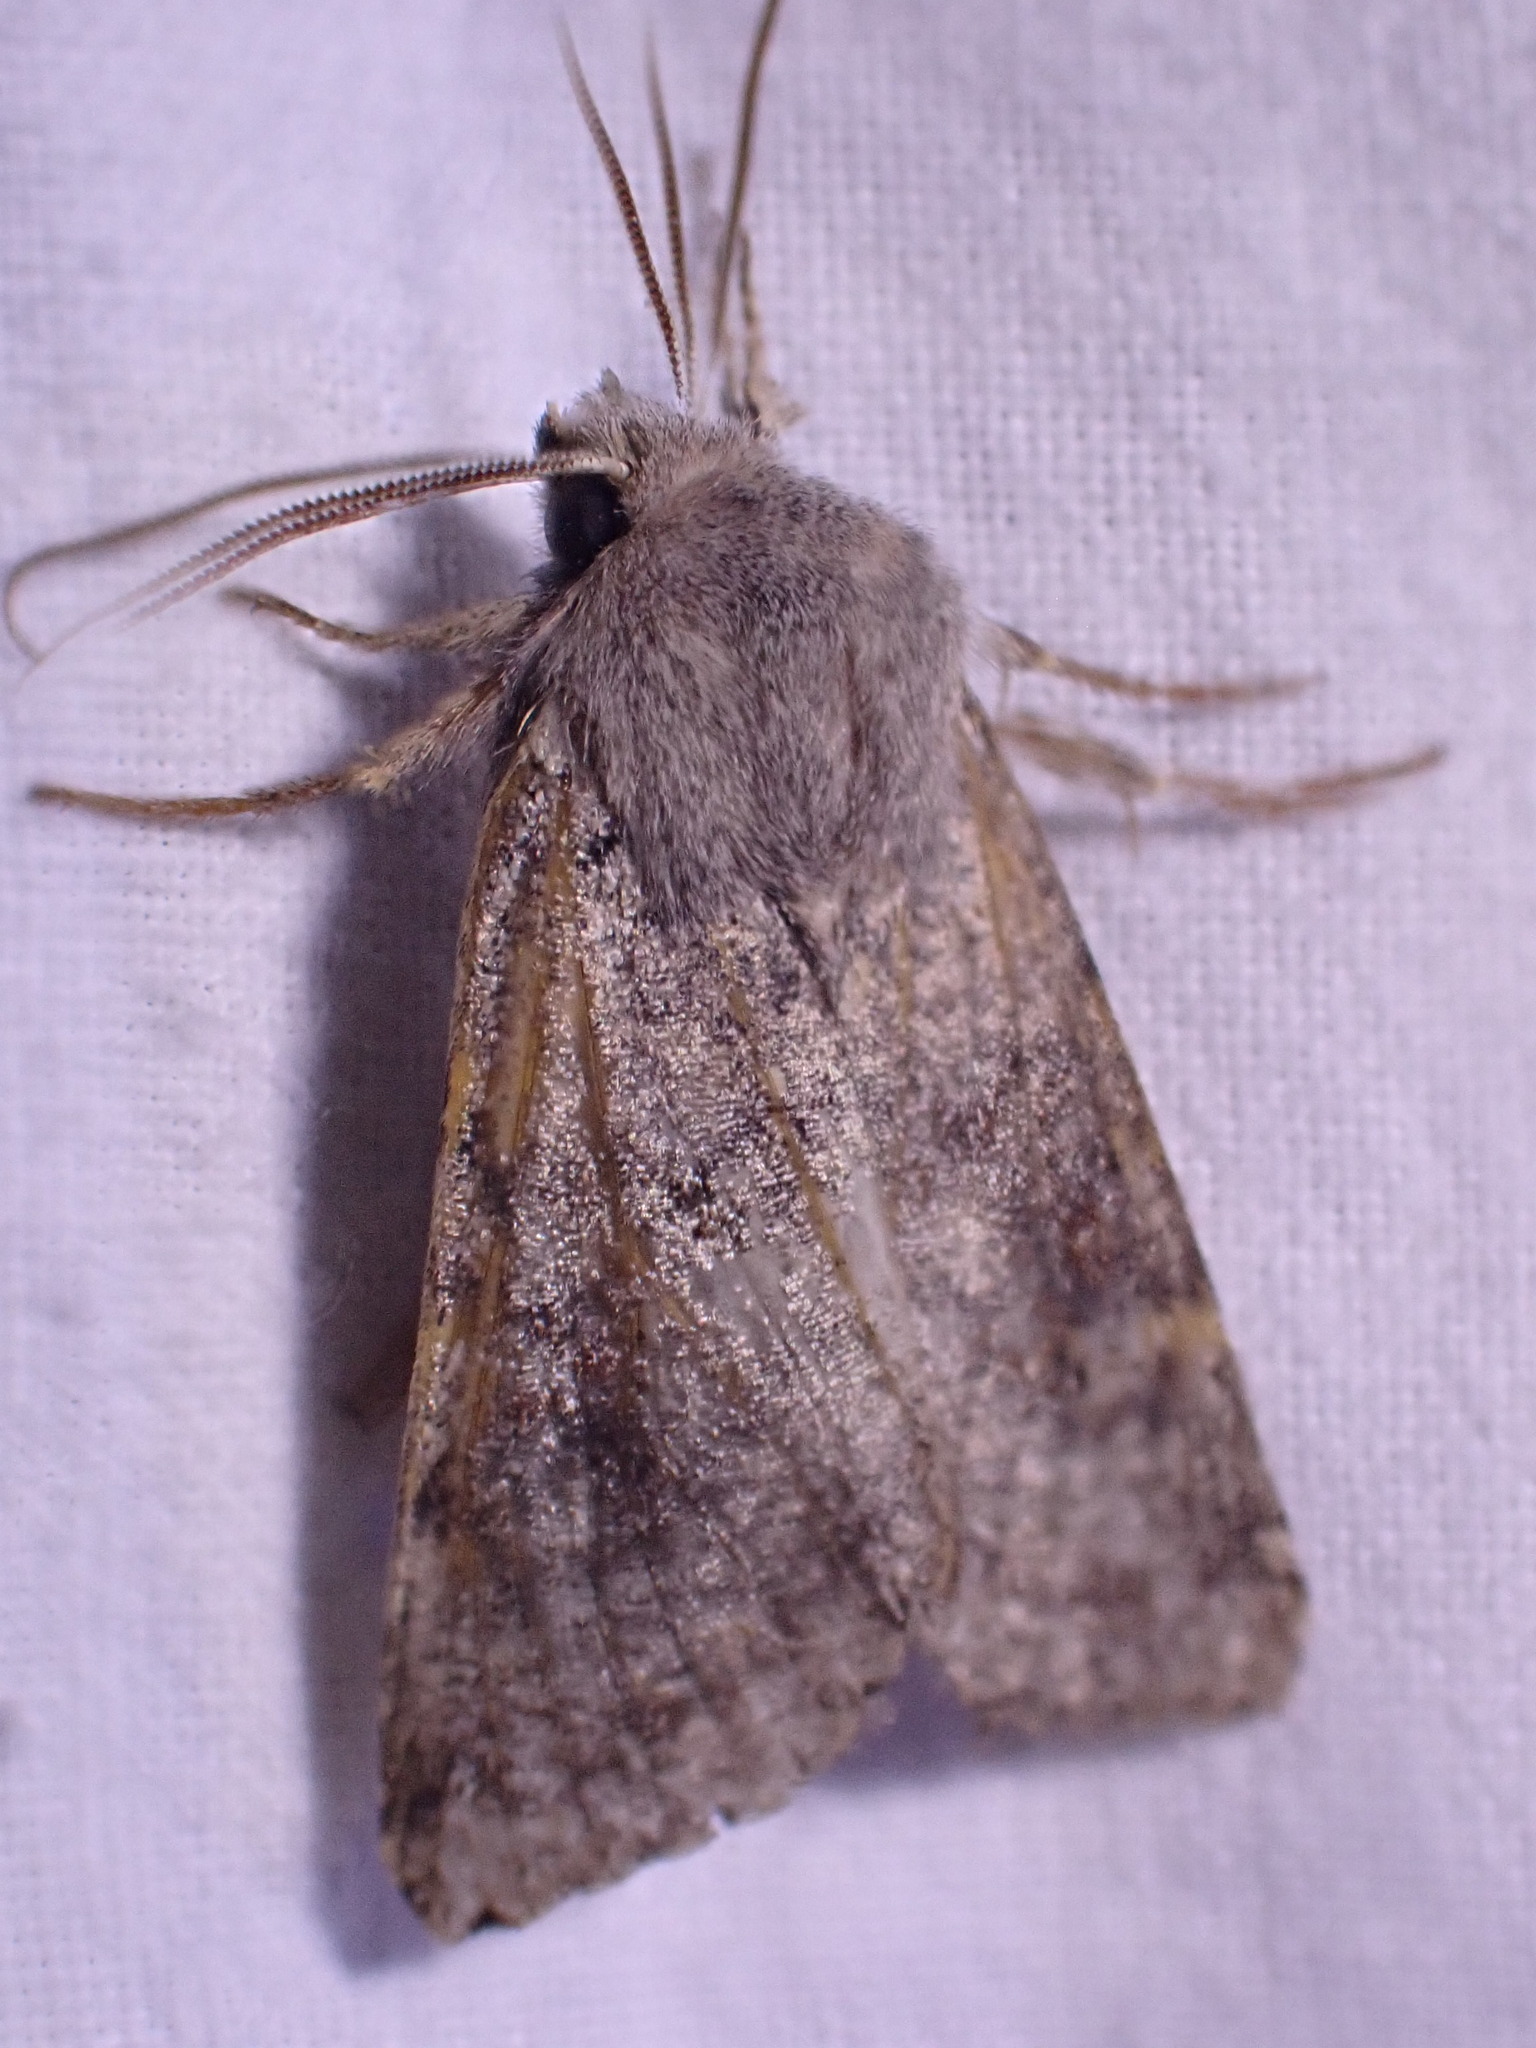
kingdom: Animalia
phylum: Arthropoda
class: Insecta
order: Lepidoptera
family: Noctuidae
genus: Orthosia
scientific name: Orthosia incerta
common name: Clouded drab
